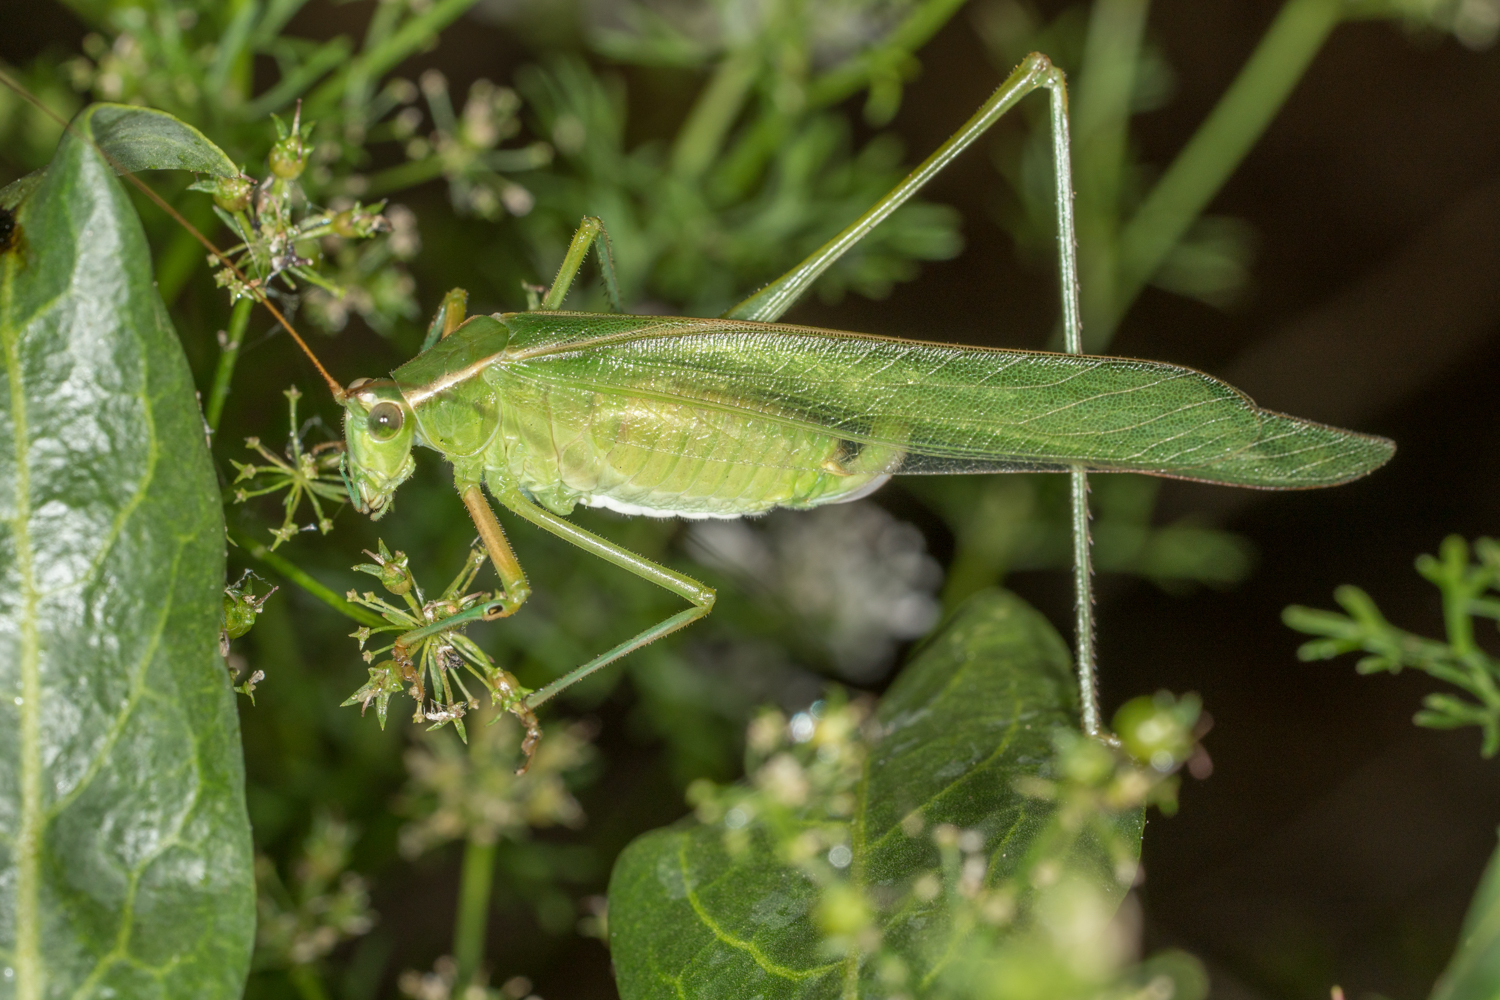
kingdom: Animalia
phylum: Arthropoda
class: Insecta
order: Orthoptera
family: Tettigoniidae
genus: Scudderia
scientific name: Scudderia mexicana
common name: Mexican bush katydid
